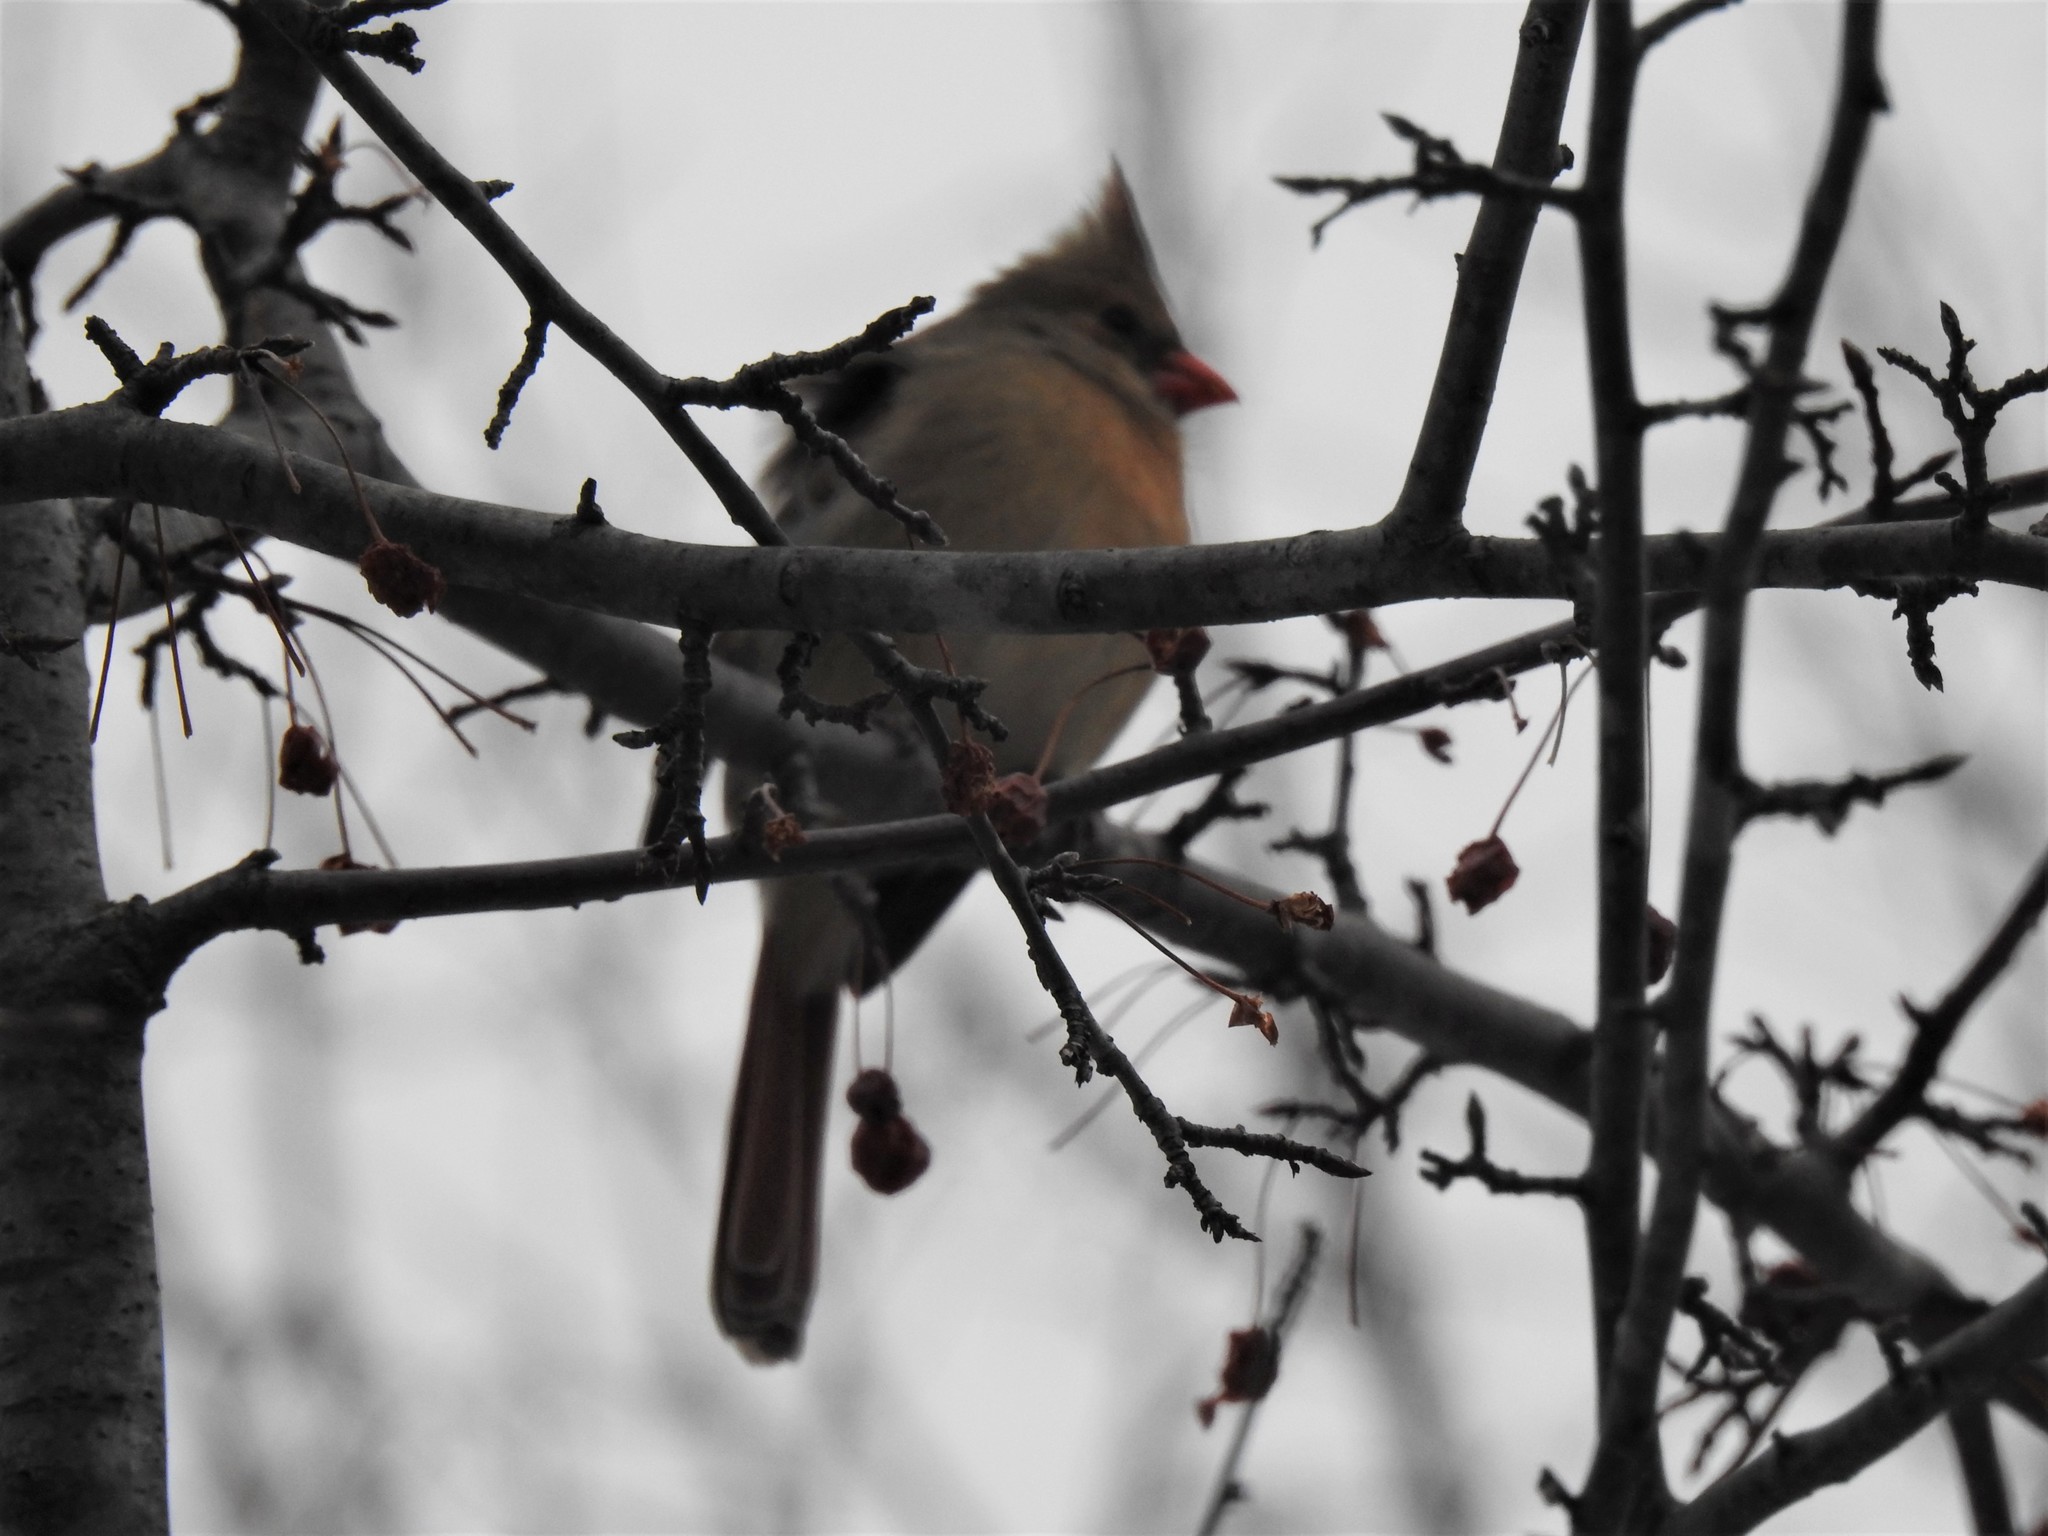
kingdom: Animalia
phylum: Chordata
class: Aves
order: Passeriformes
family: Cardinalidae
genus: Cardinalis
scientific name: Cardinalis cardinalis
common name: Northern cardinal
